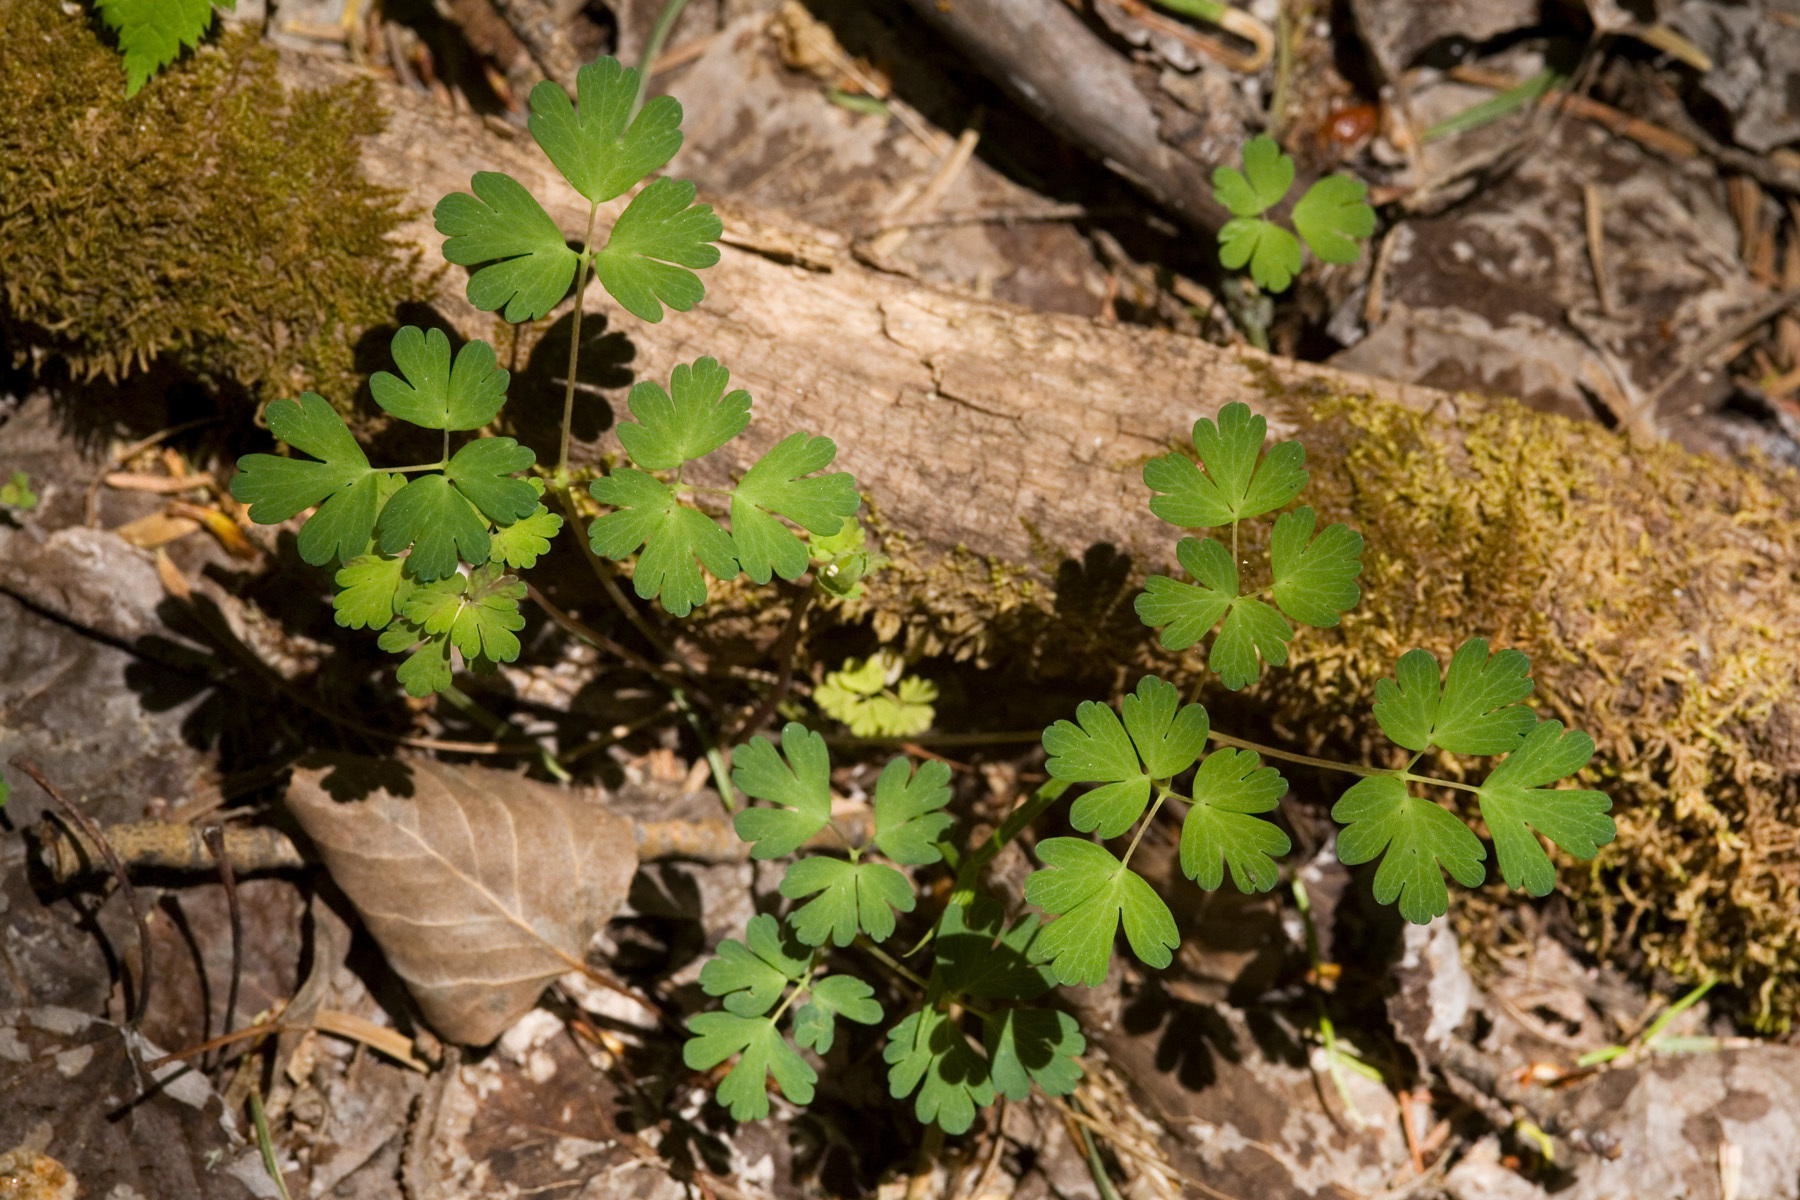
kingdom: Plantae
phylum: Tracheophyta
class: Magnoliopsida
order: Ranunculales
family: Ranunculaceae
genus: Aquilegia
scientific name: Aquilegia elegantula
